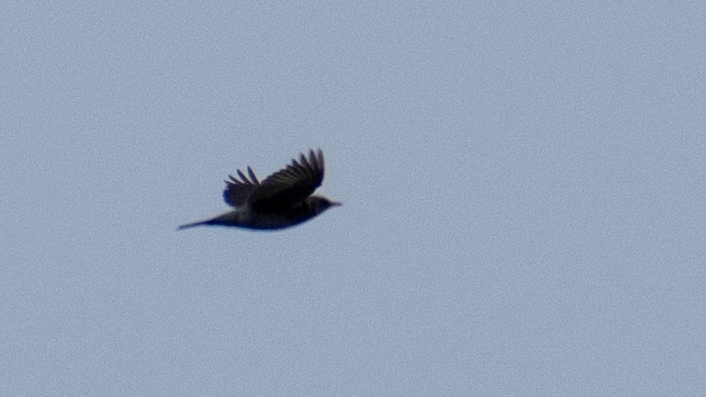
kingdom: Animalia
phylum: Chordata
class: Aves
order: Passeriformes
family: Turdidae
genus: Turdus
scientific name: Turdus pilaris
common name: Fieldfare
